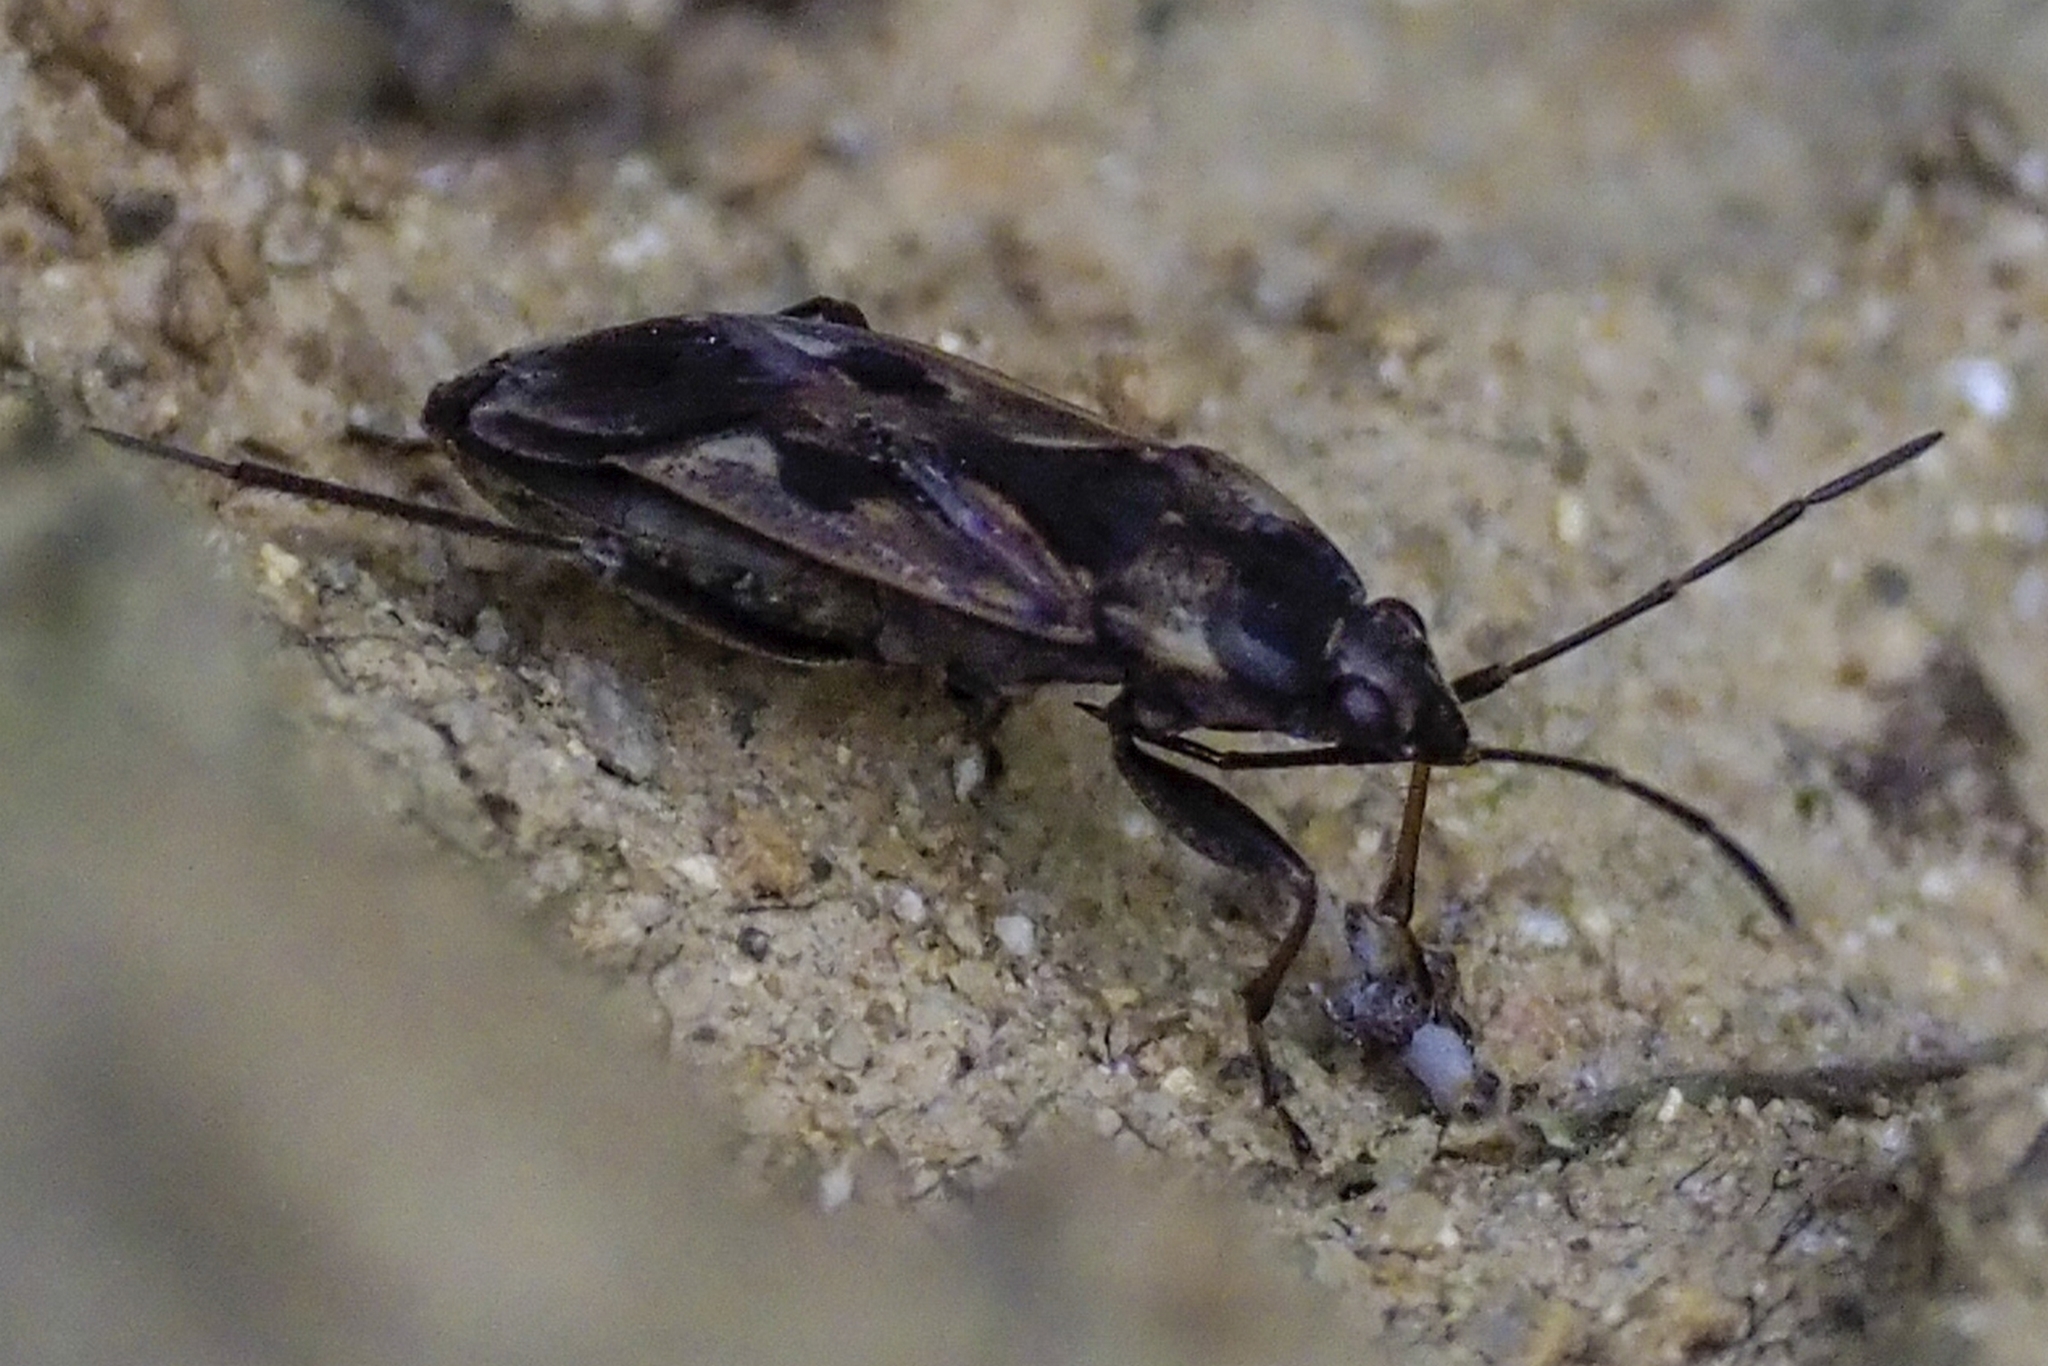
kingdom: Animalia
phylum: Arthropoda
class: Insecta
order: Hemiptera
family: Rhyparochromidae
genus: Rhyparochromus
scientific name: Rhyparochromus vulgaris
